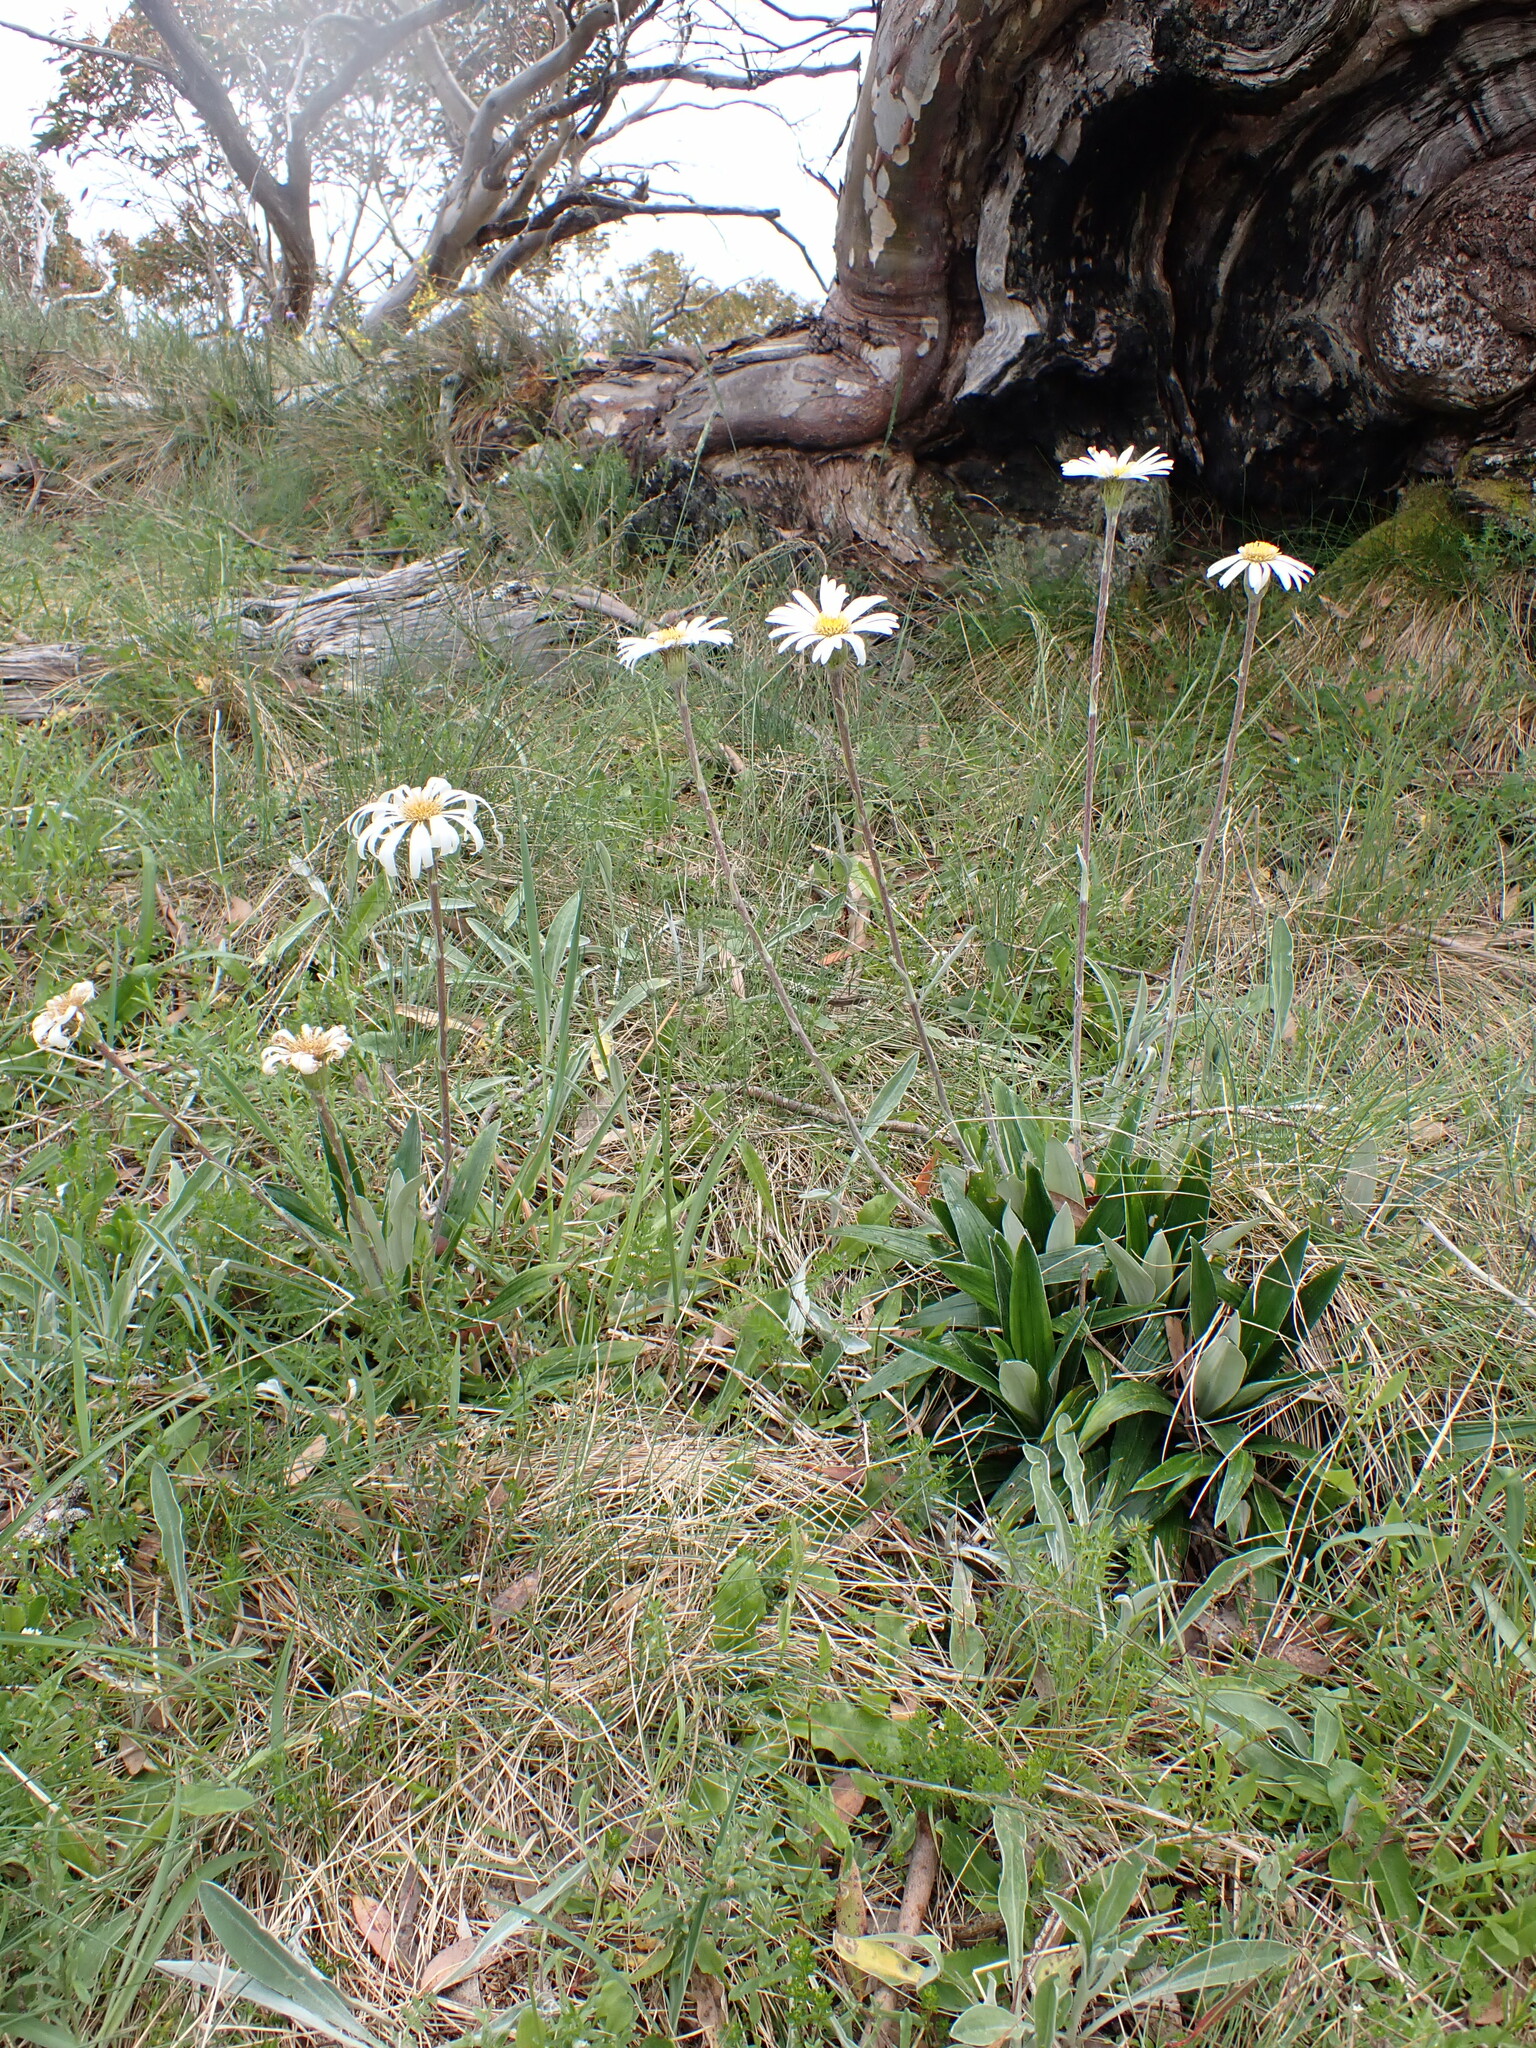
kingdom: Plantae
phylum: Tracheophyta
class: Magnoliopsida
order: Asterales
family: Asteraceae
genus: Celmisia
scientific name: Celmisia latifolia
